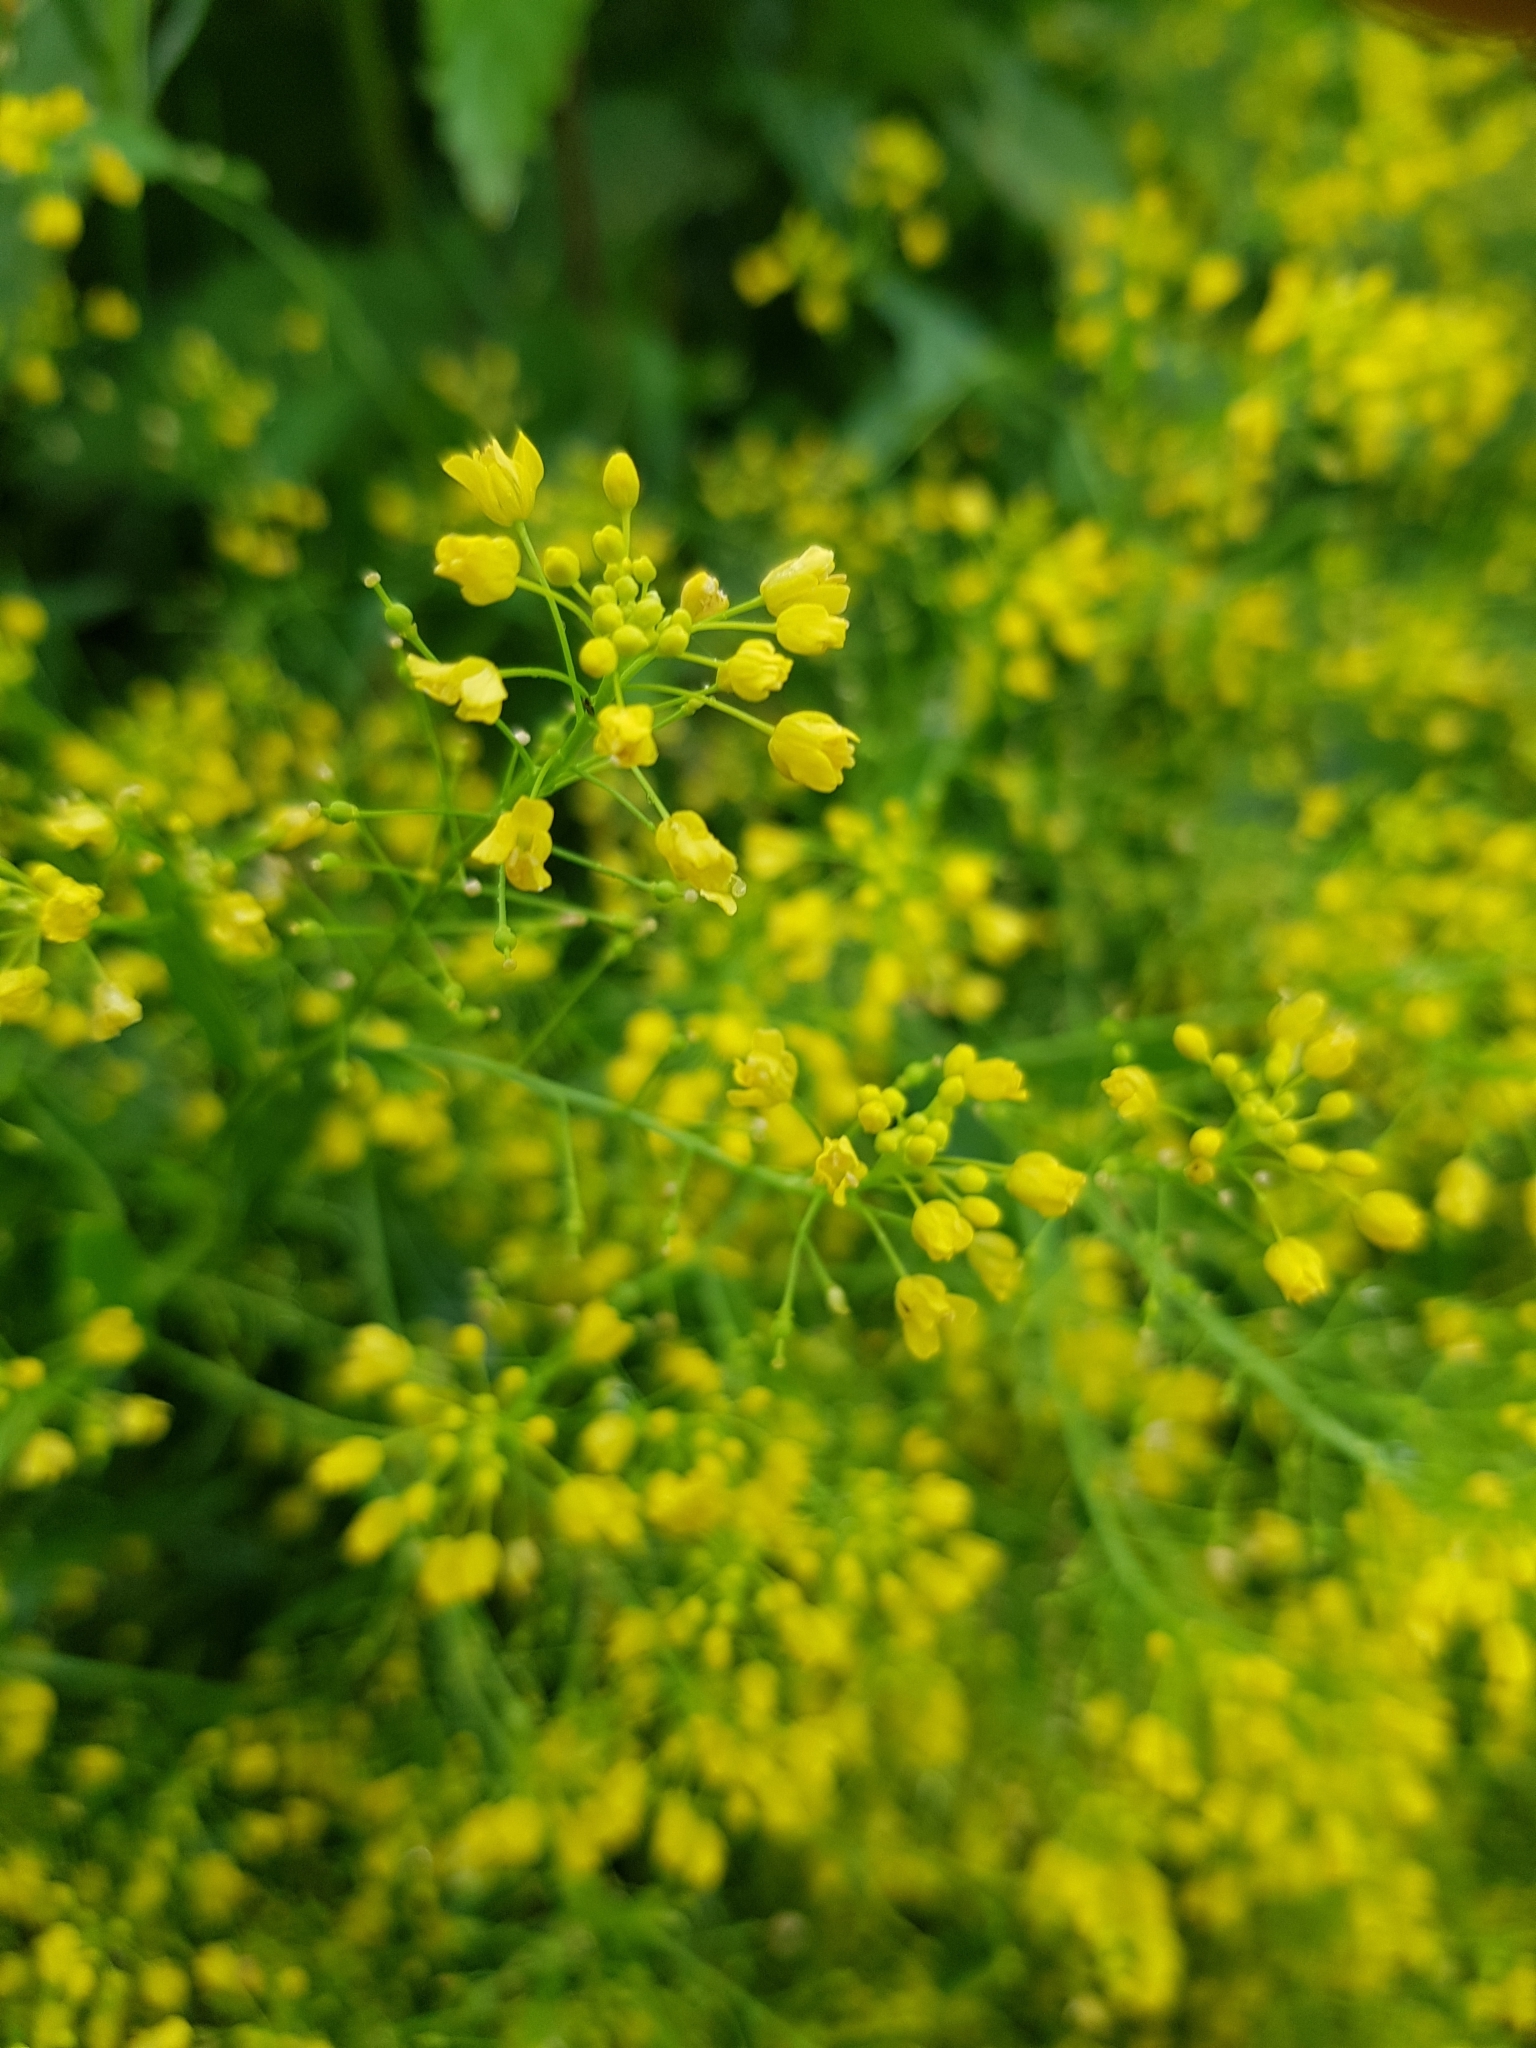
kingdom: Plantae
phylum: Tracheophyta
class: Magnoliopsida
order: Brassicales
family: Brassicaceae
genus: Rorippa
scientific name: Rorippa austriaca
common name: Austrian yellow-cress
